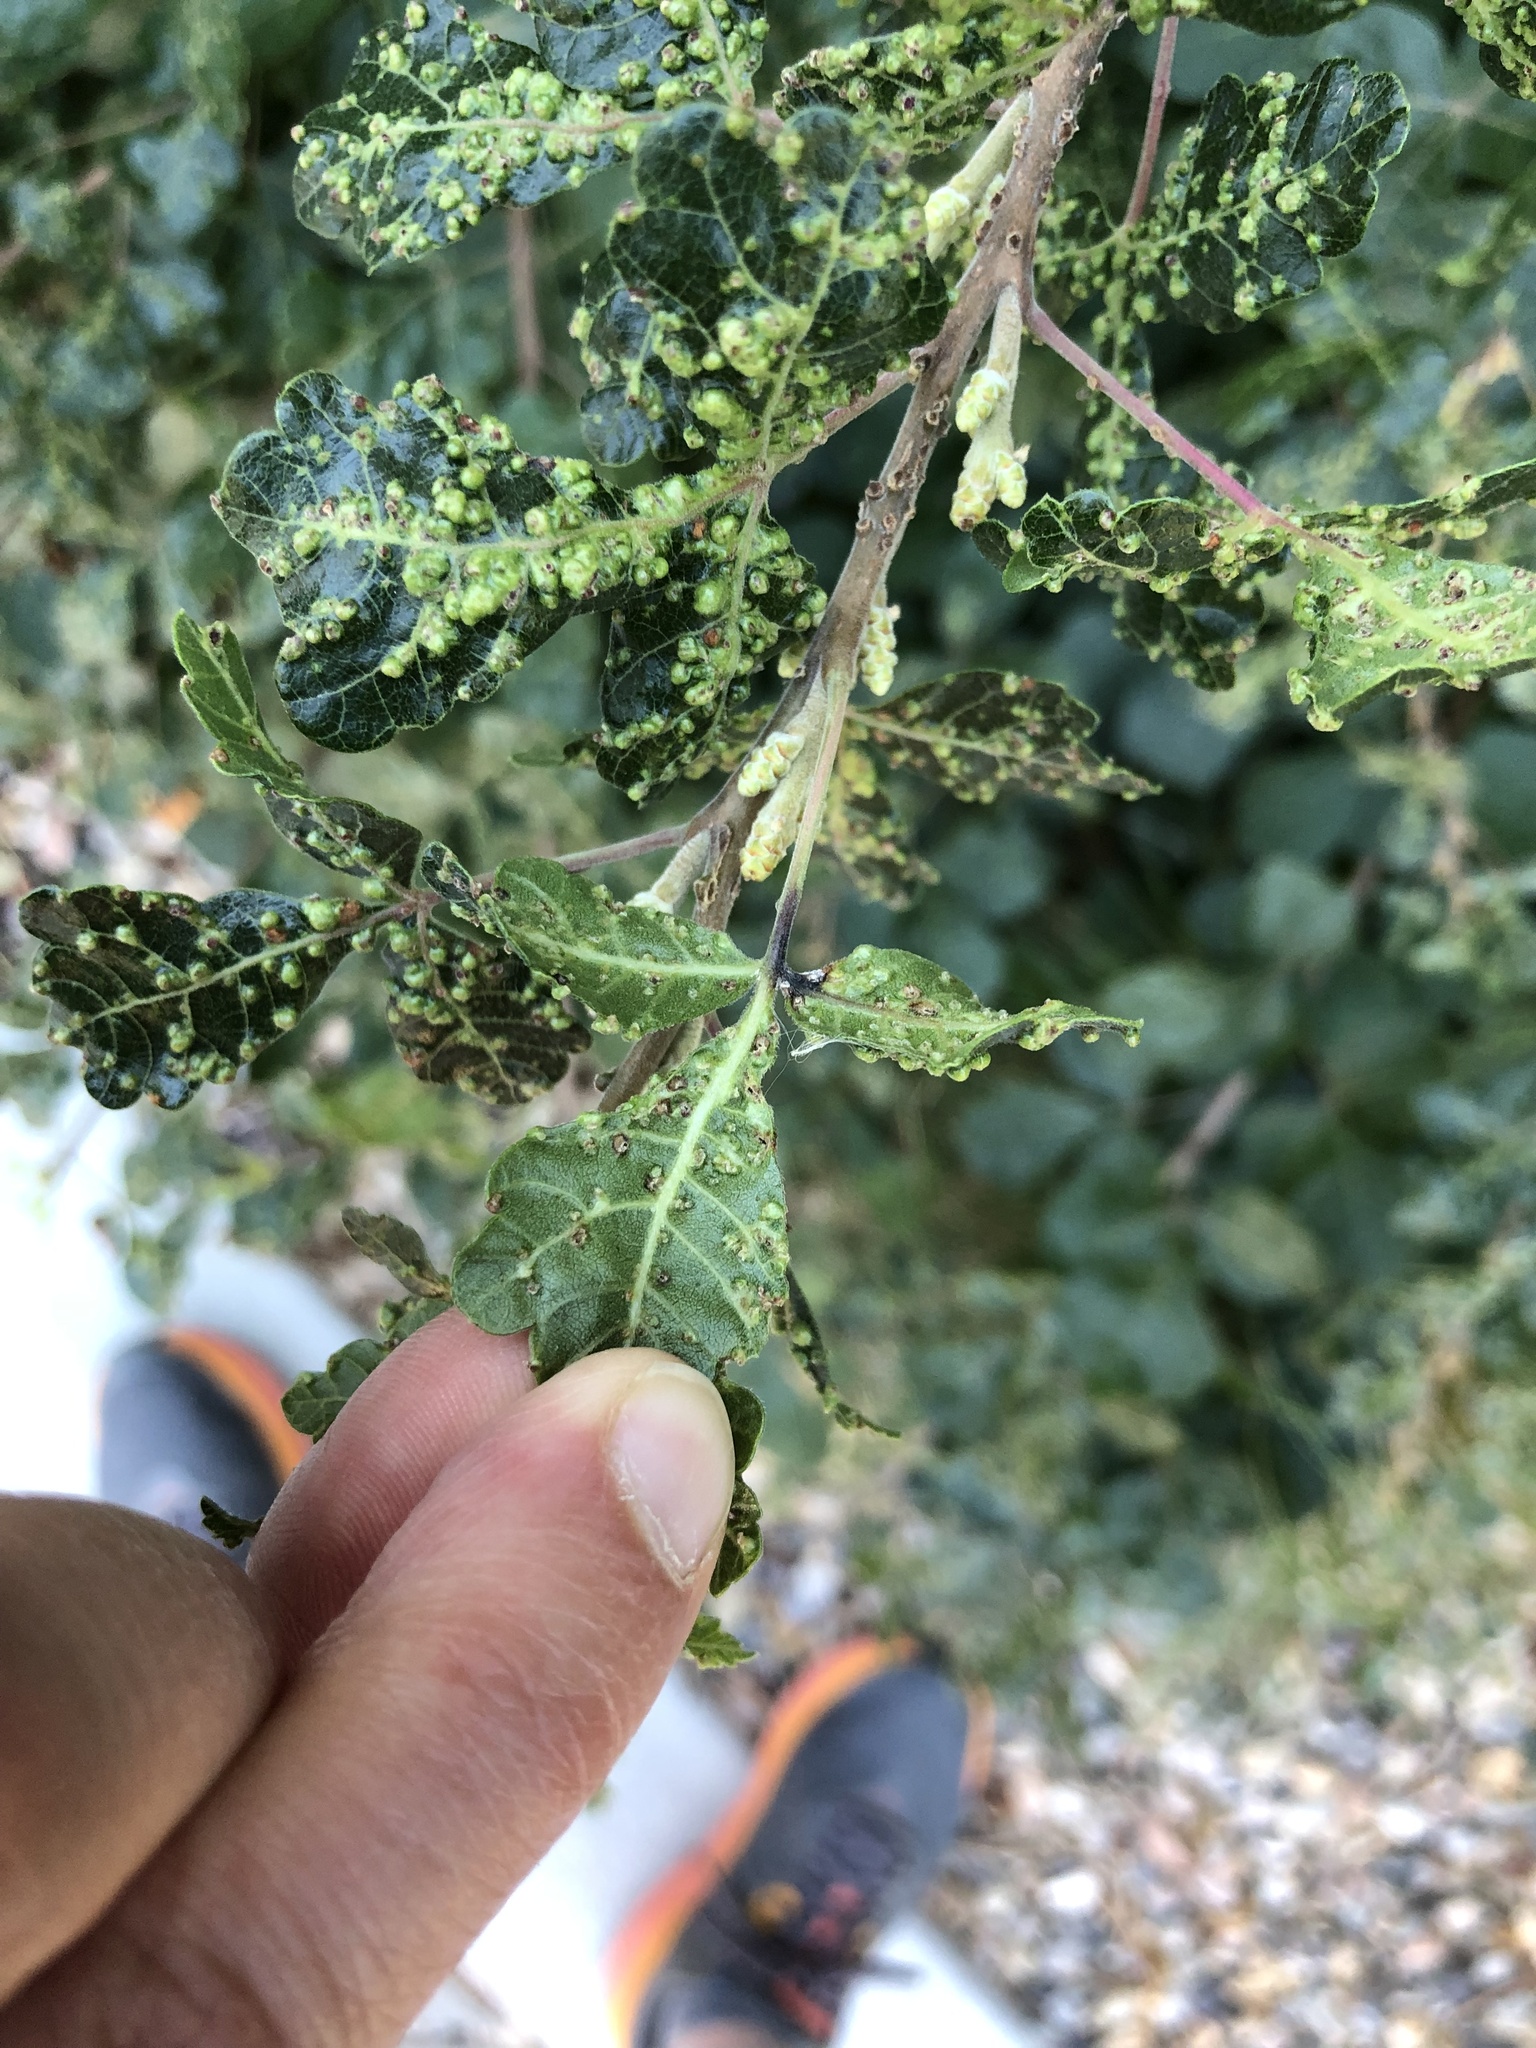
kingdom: Plantae
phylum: Tracheophyta
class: Magnoliopsida
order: Sapindales
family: Anacardiaceae
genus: Rhus
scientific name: Rhus aromatica
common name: Aromatic sumac
